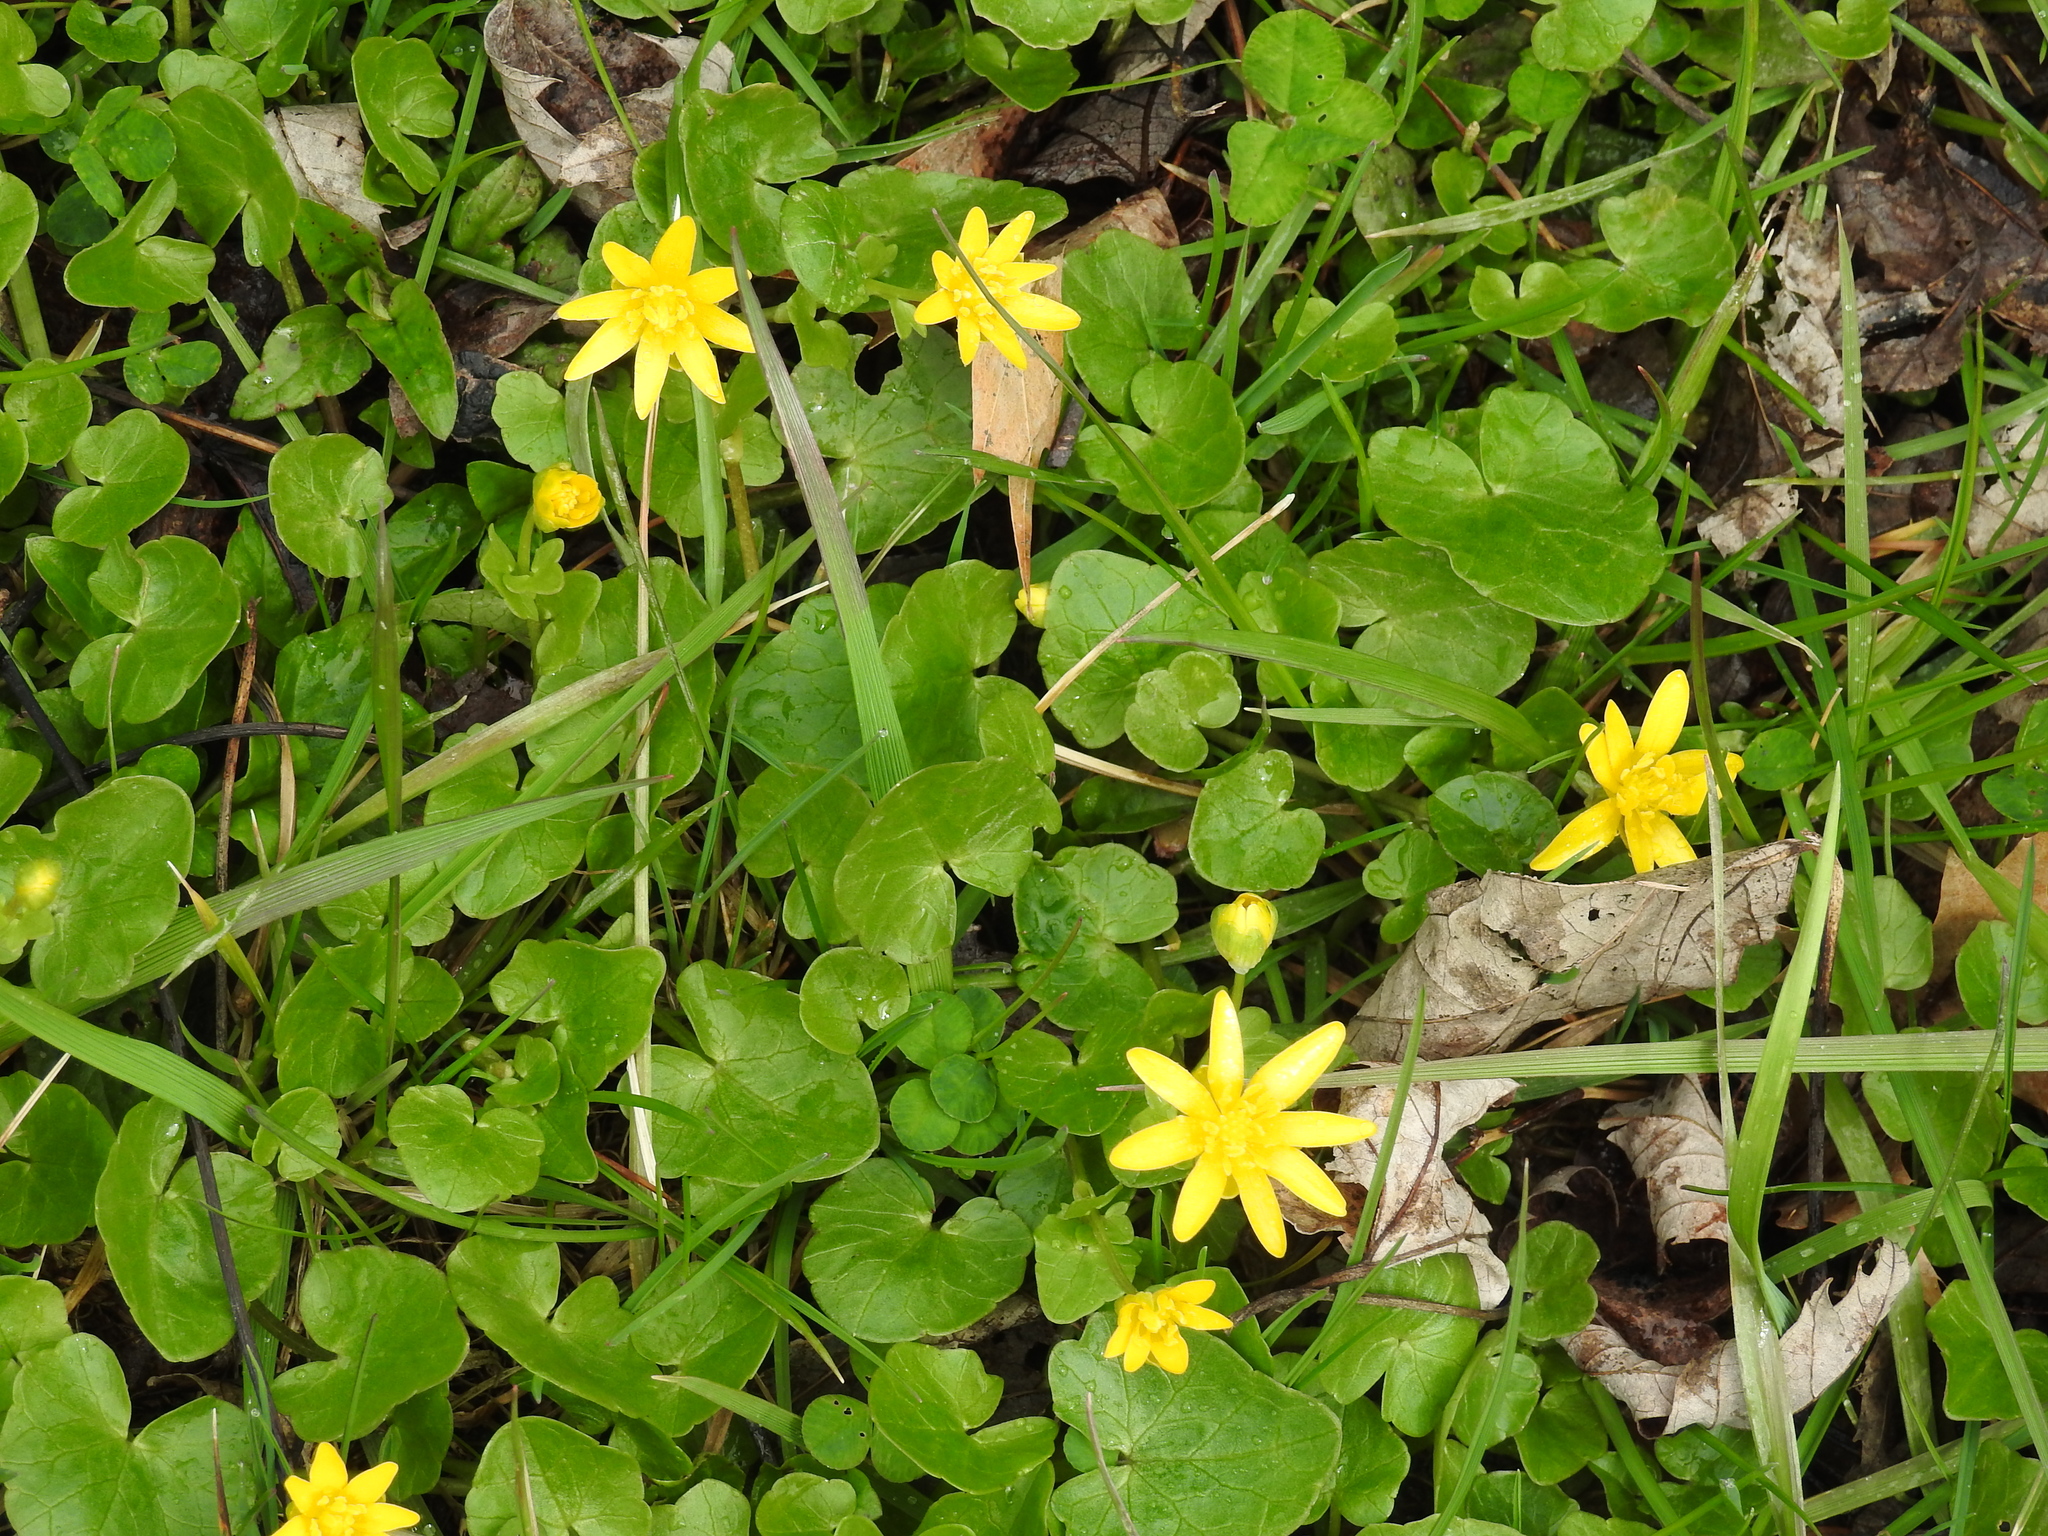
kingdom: Plantae
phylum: Tracheophyta
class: Magnoliopsida
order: Ranunculales
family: Ranunculaceae
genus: Ficaria
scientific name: Ficaria verna
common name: Lesser celandine
